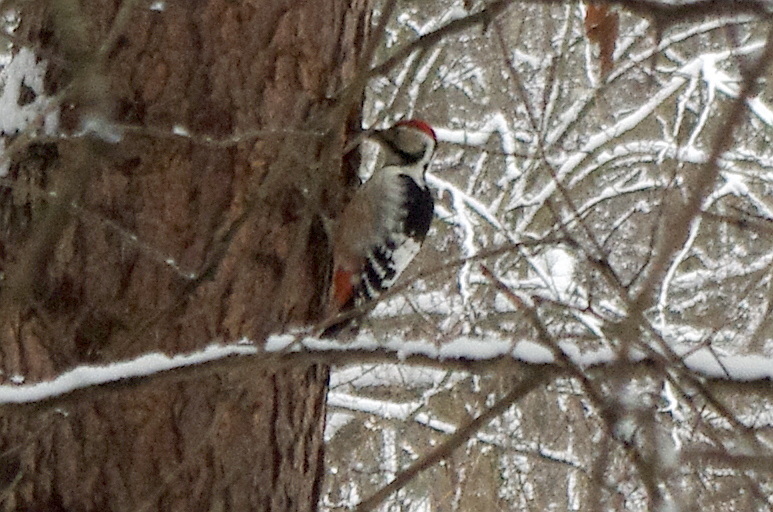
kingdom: Animalia
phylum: Chordata
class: Aves
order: Piciformes
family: Picidae
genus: Dendrocopos
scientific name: Dendrocopos leucotos
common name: White-backed woodpecker
